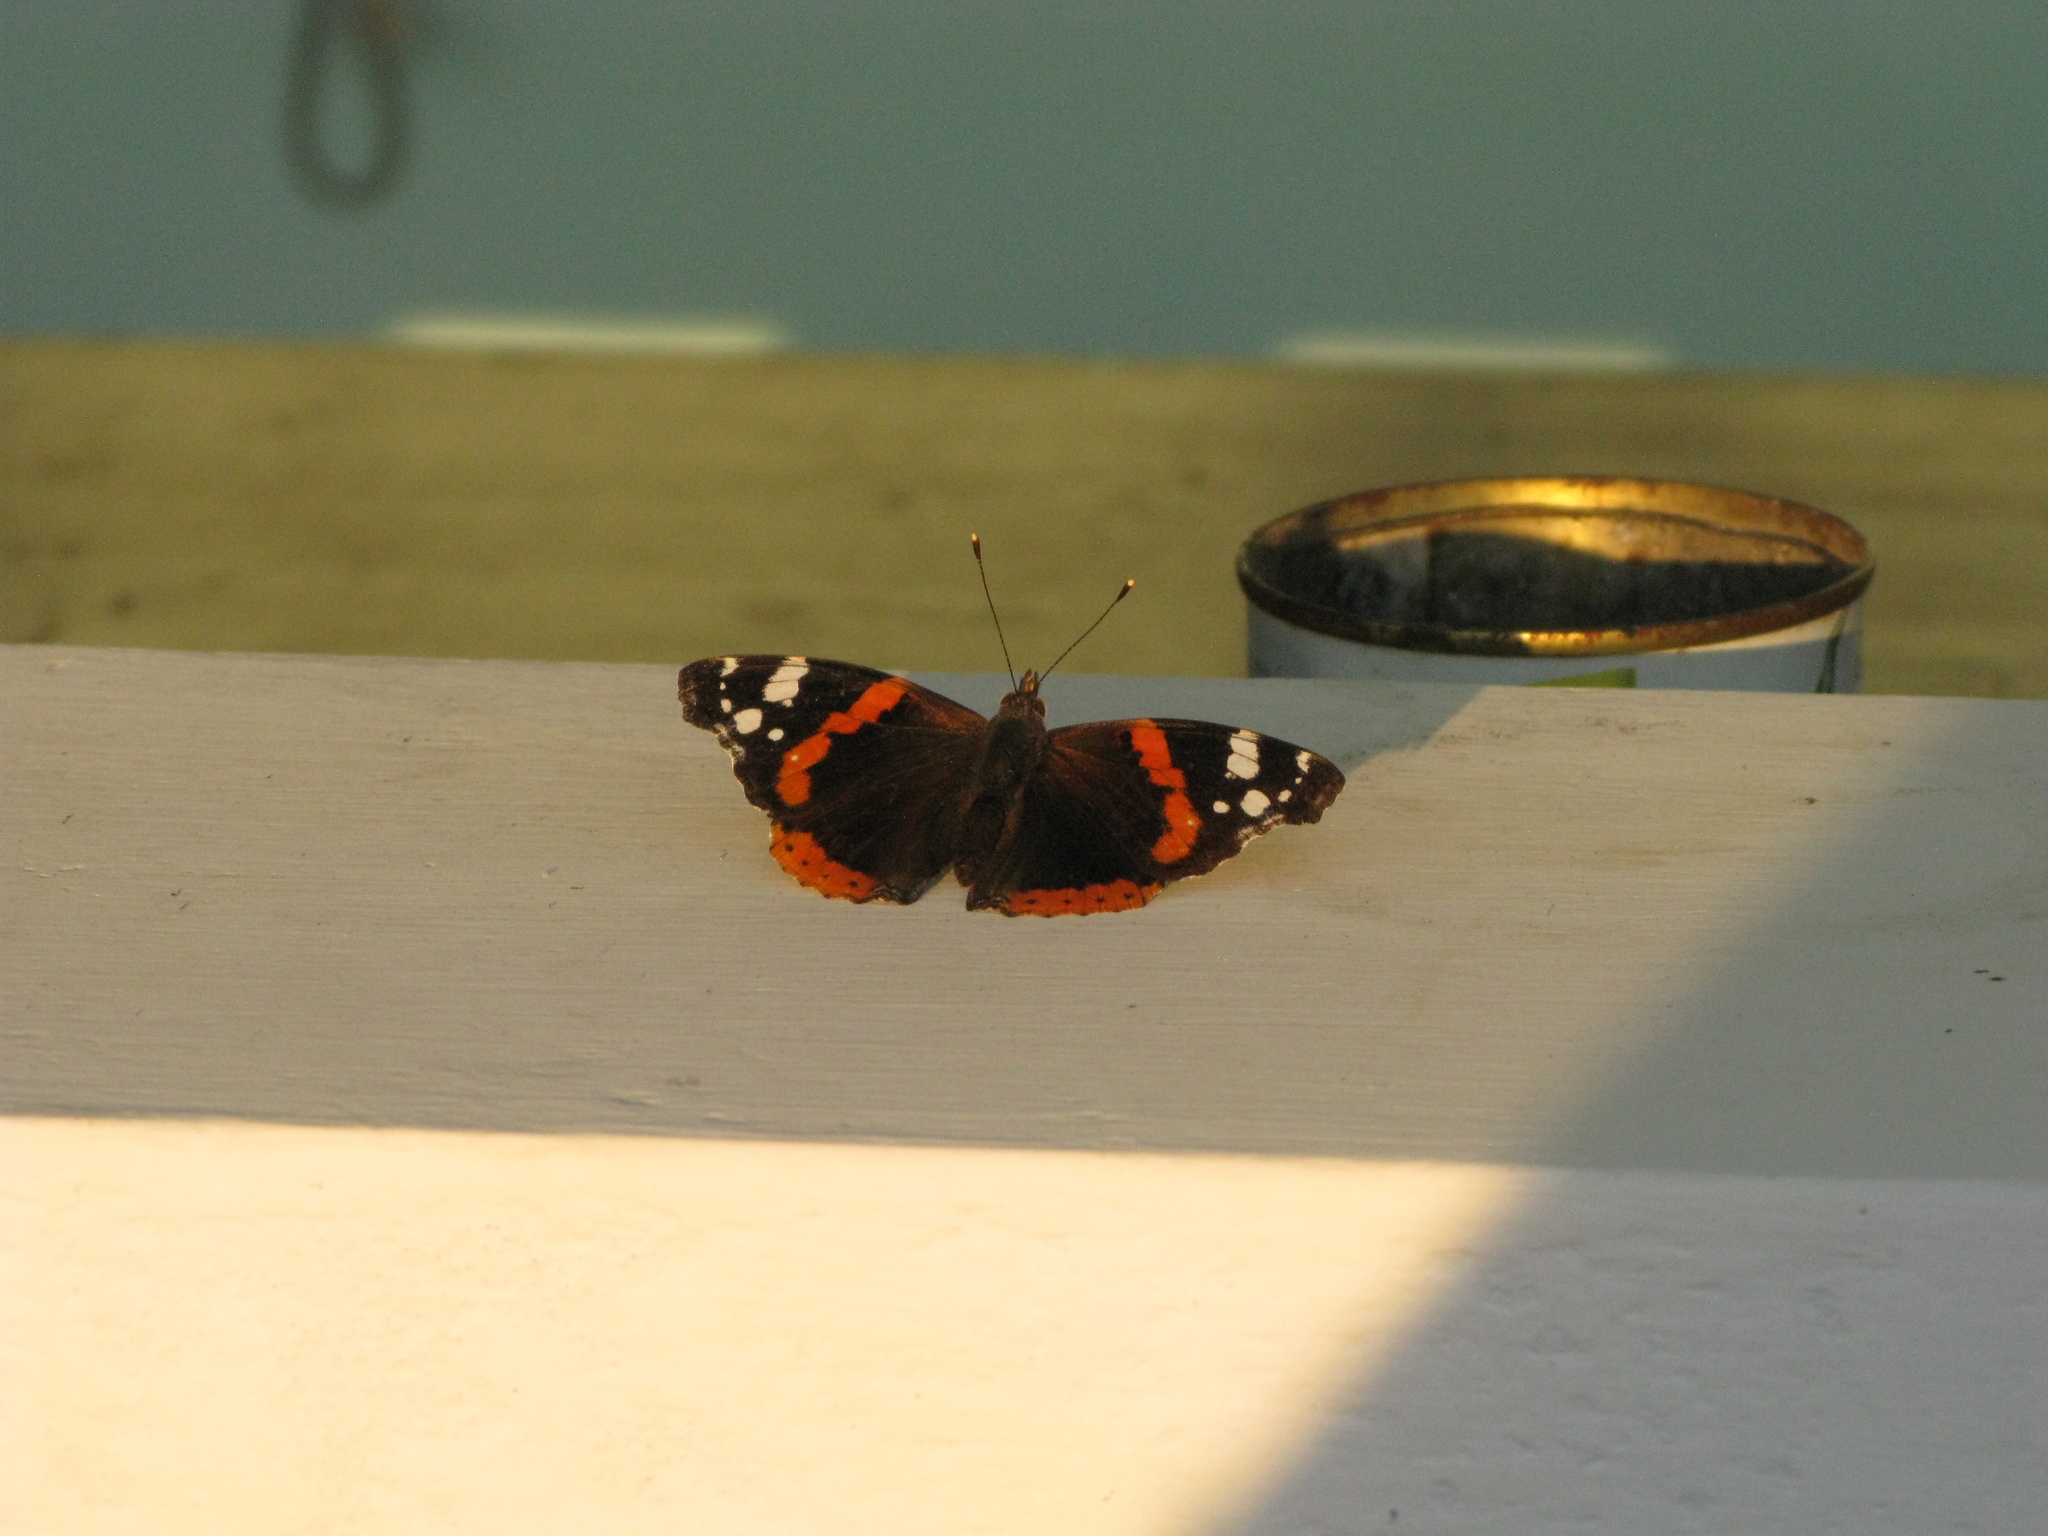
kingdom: Animalia
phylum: Arthropoda
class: Insecta
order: Lepidoptera
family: Nymphalidae
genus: Vanessa
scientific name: Vanessa atalanta
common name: Red admiral
